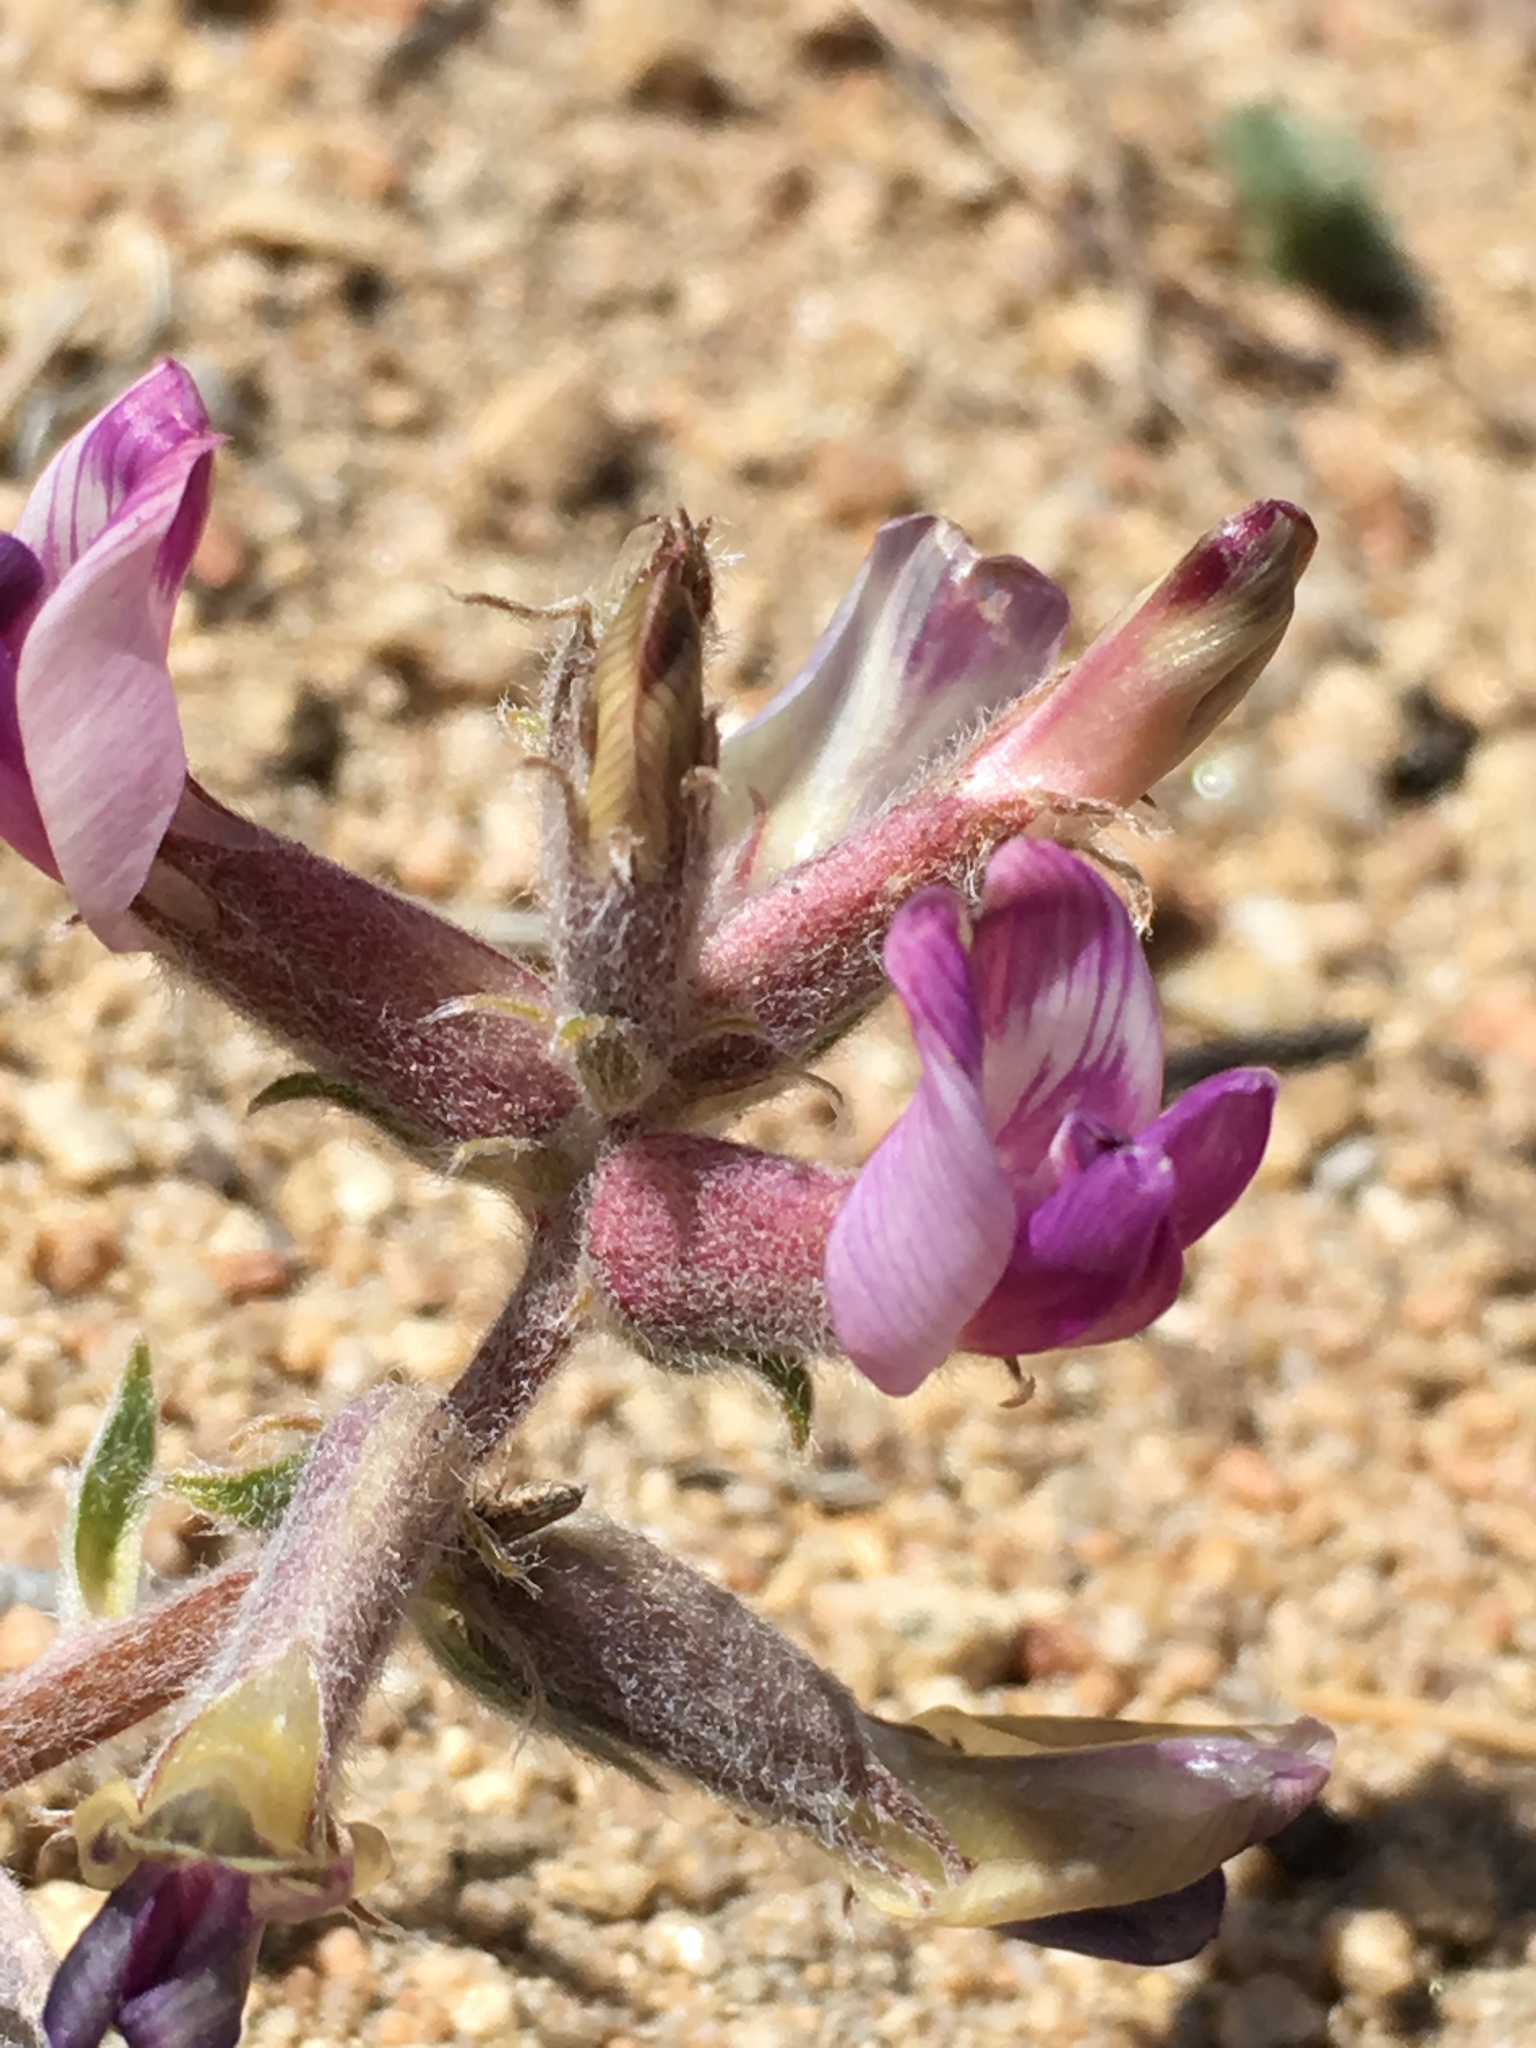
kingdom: Plantae
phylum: Tracheophyta
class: Magnoliopsida
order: Fabales
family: Fabaceae
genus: Astragalus
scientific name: Astragalus leucolobus
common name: Big bear valley woollypod
